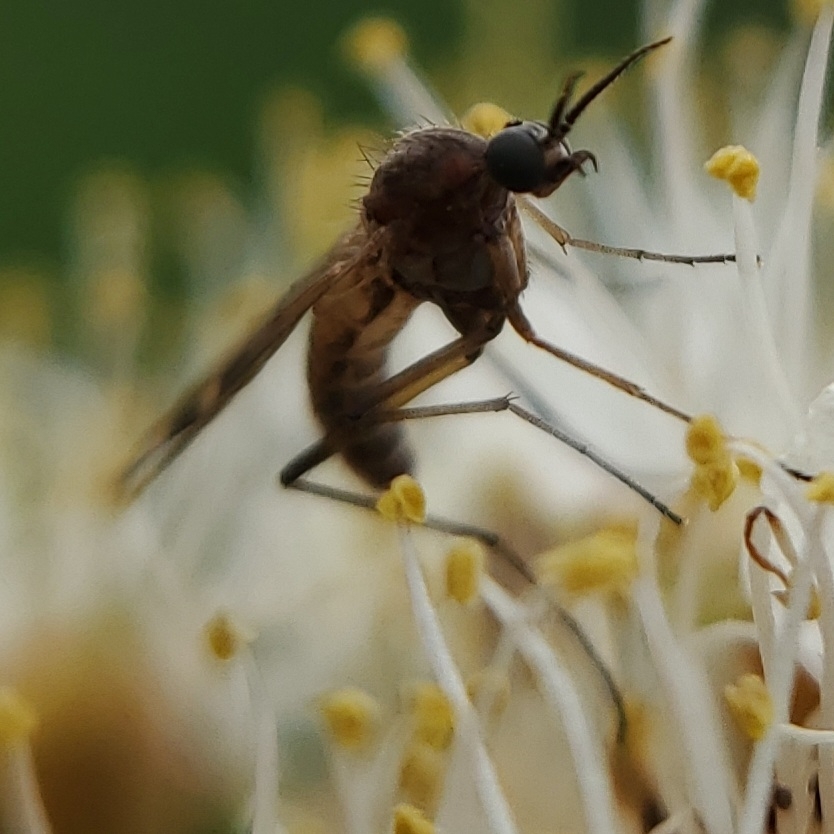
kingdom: Animalia
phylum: Arthropoda
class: Insecta
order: Diptera
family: Anisopodidae
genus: Sylvicola
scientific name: Sylvicola alternata
